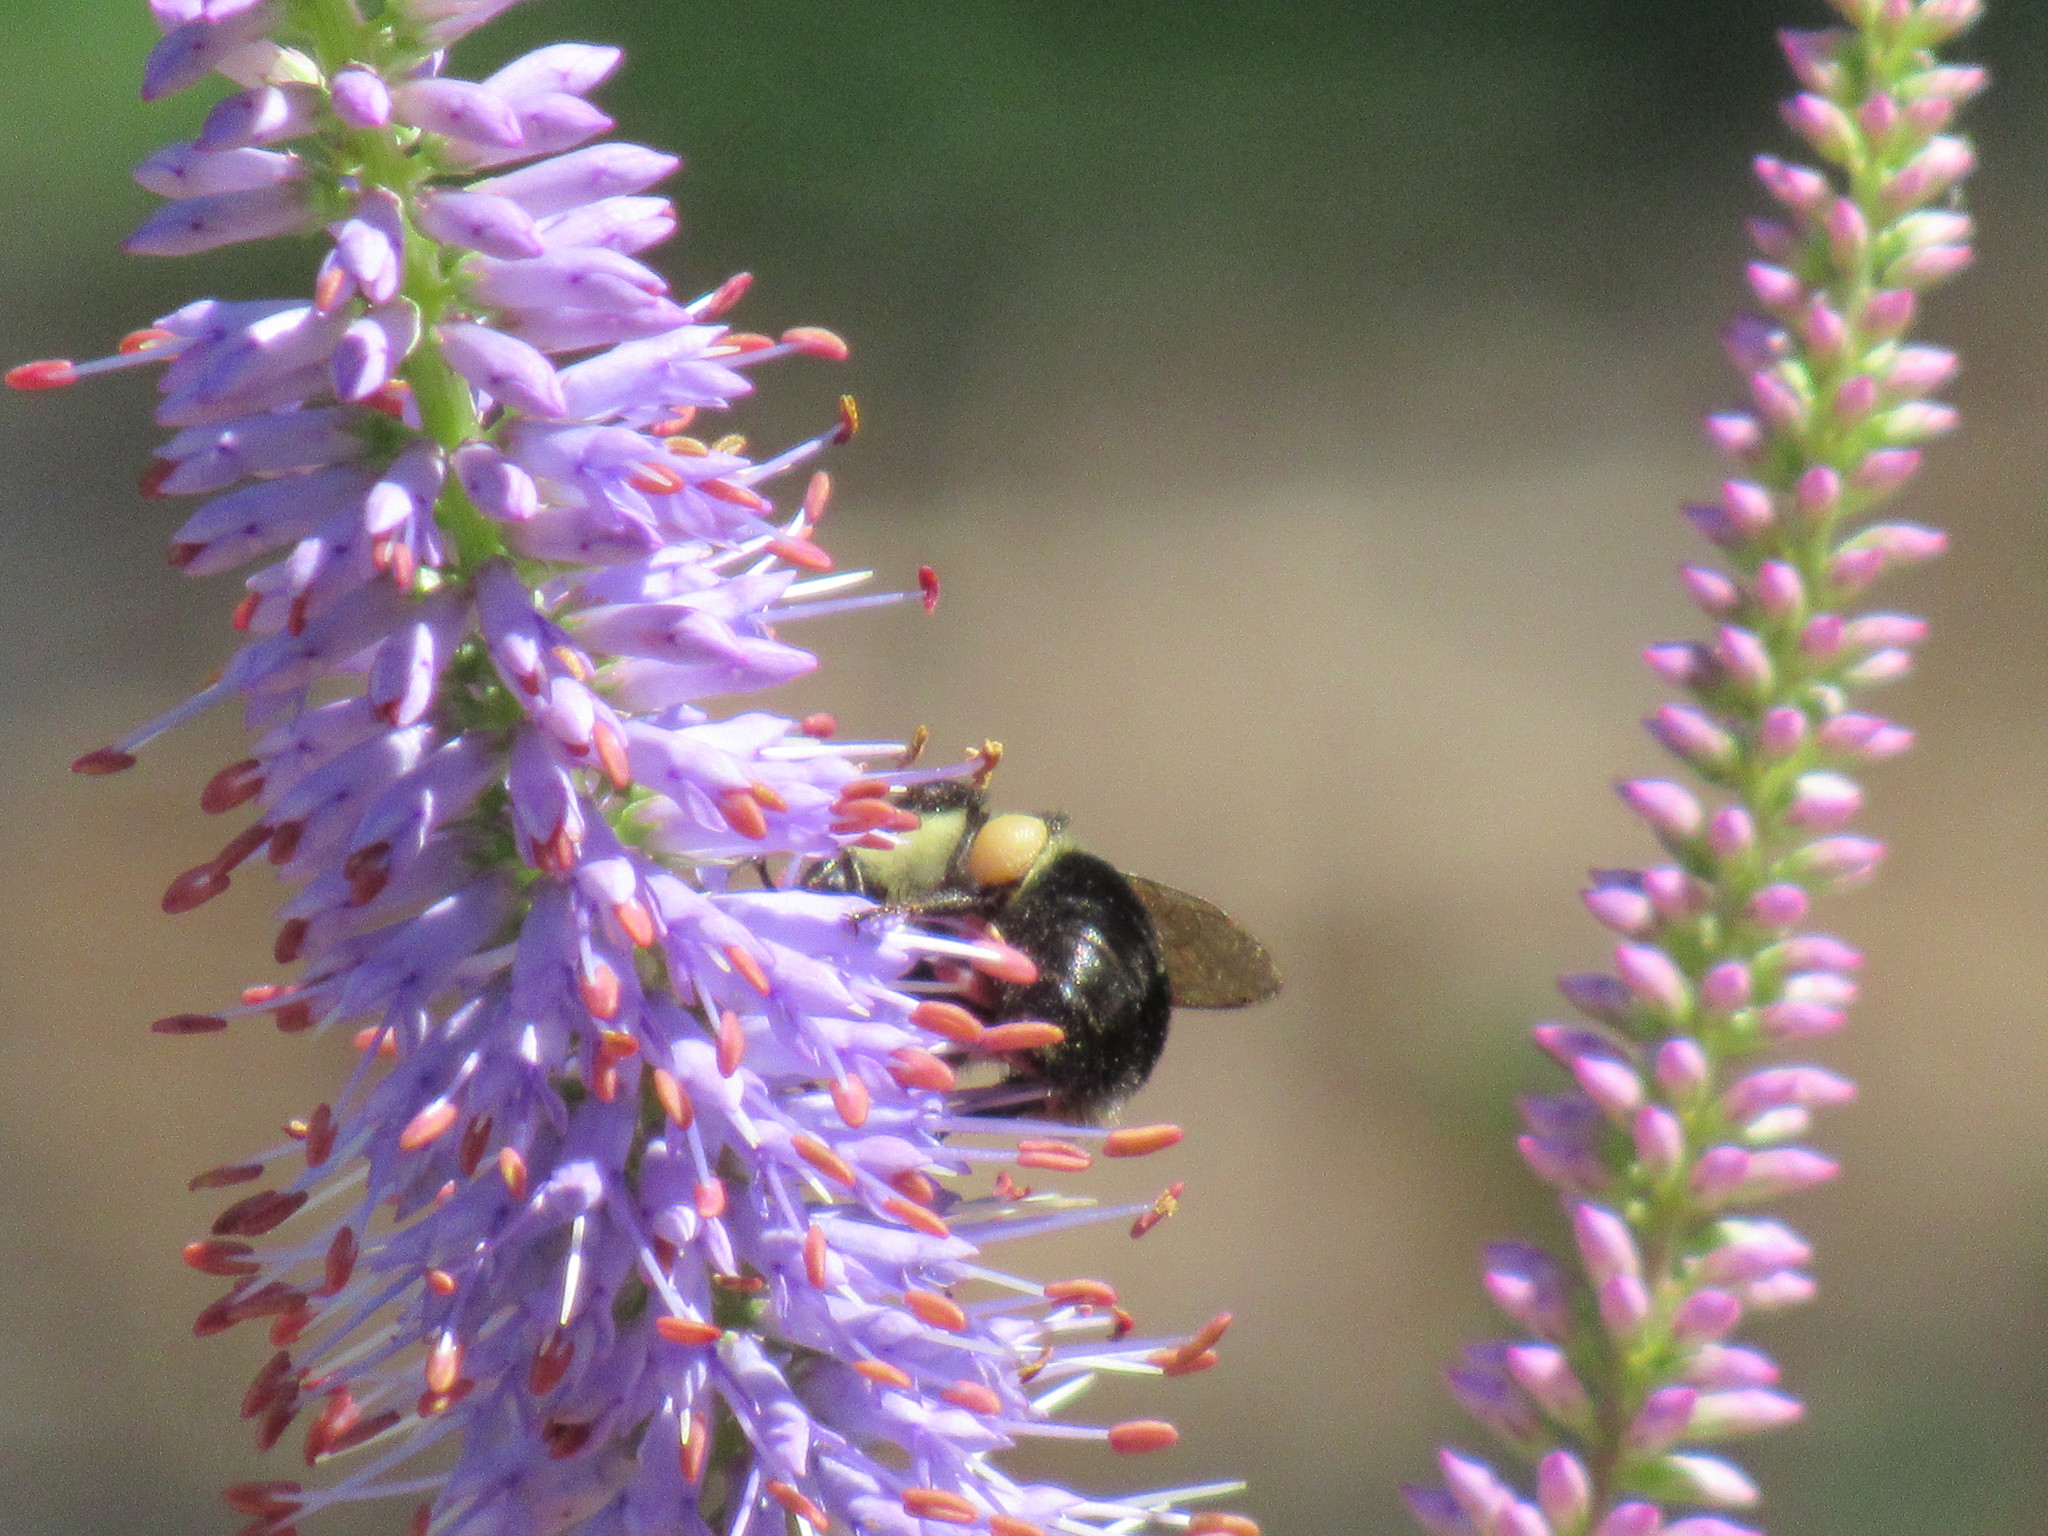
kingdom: Animalia
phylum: Arthropoda
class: Insecta
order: Hymenoptera
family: Apidae
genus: Bombus
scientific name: Bombus
